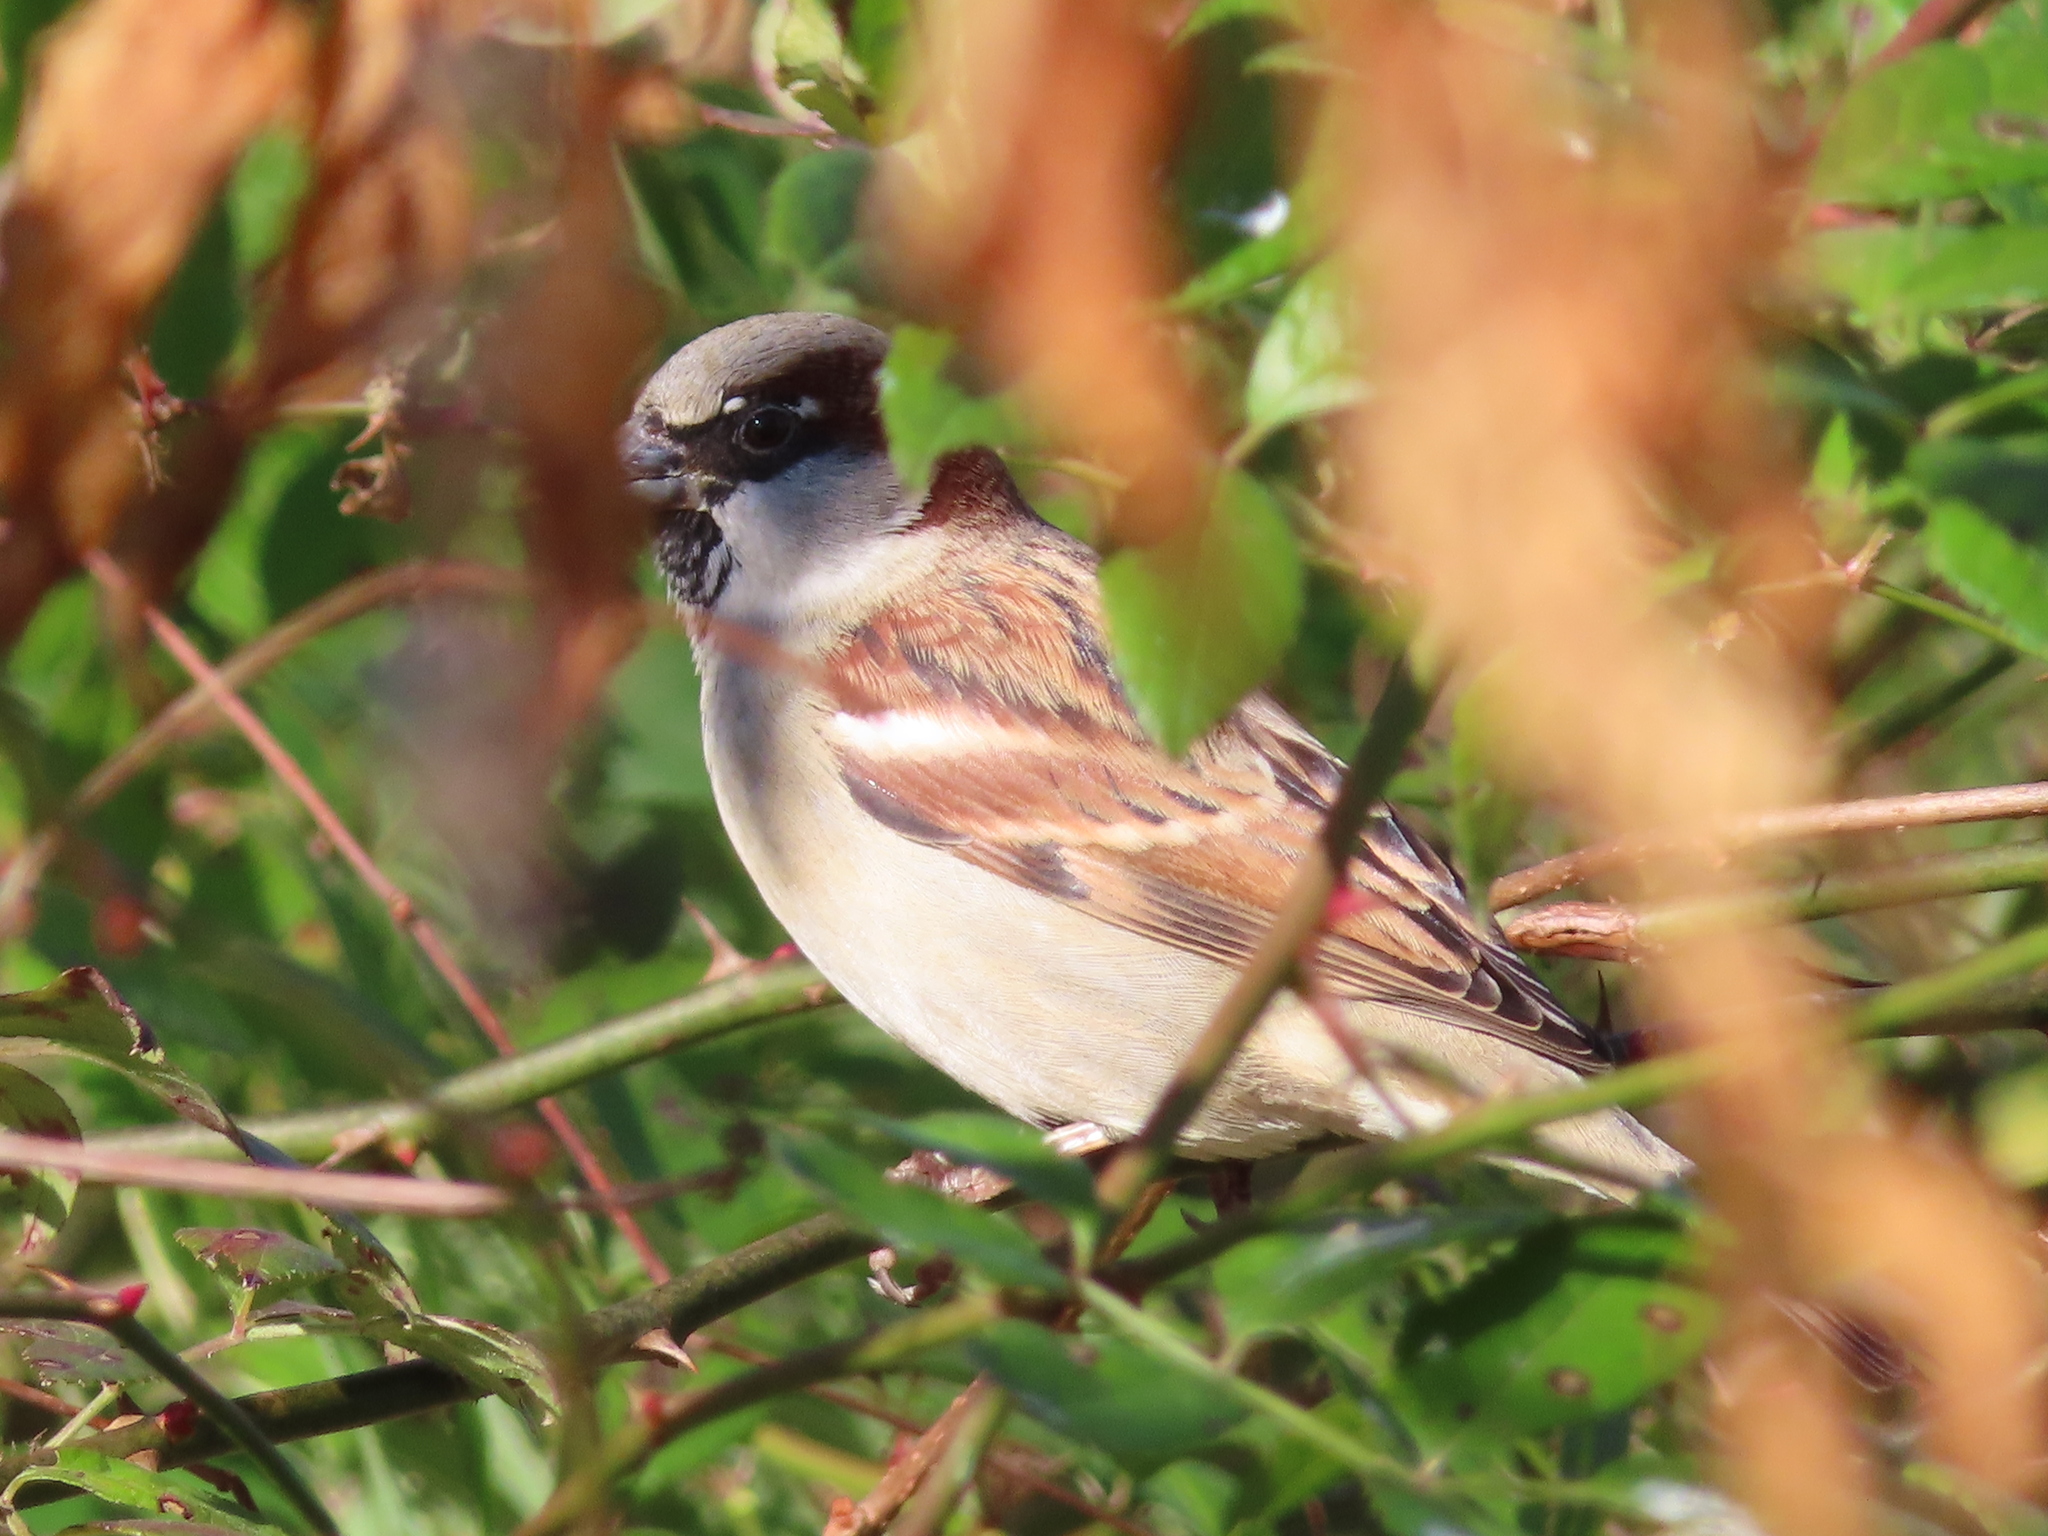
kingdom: Animalia
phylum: Chordata
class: Aves
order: Passeriformes
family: Passeridae
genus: Passer
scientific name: Passer domesticus
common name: House sparrow
